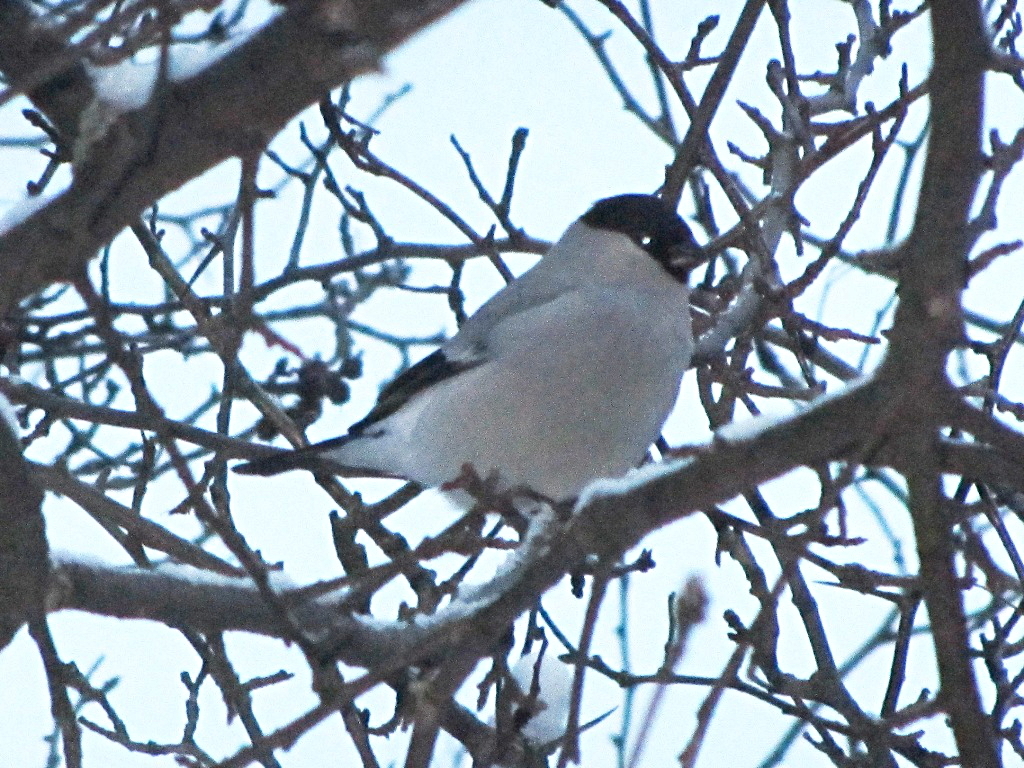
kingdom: Animalia
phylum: Chordata
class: Aves
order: Passeriformes
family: Fringillidae
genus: Pyrrhula
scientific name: Pyrrhula pyrrhula
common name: Eurasian bullfinch
